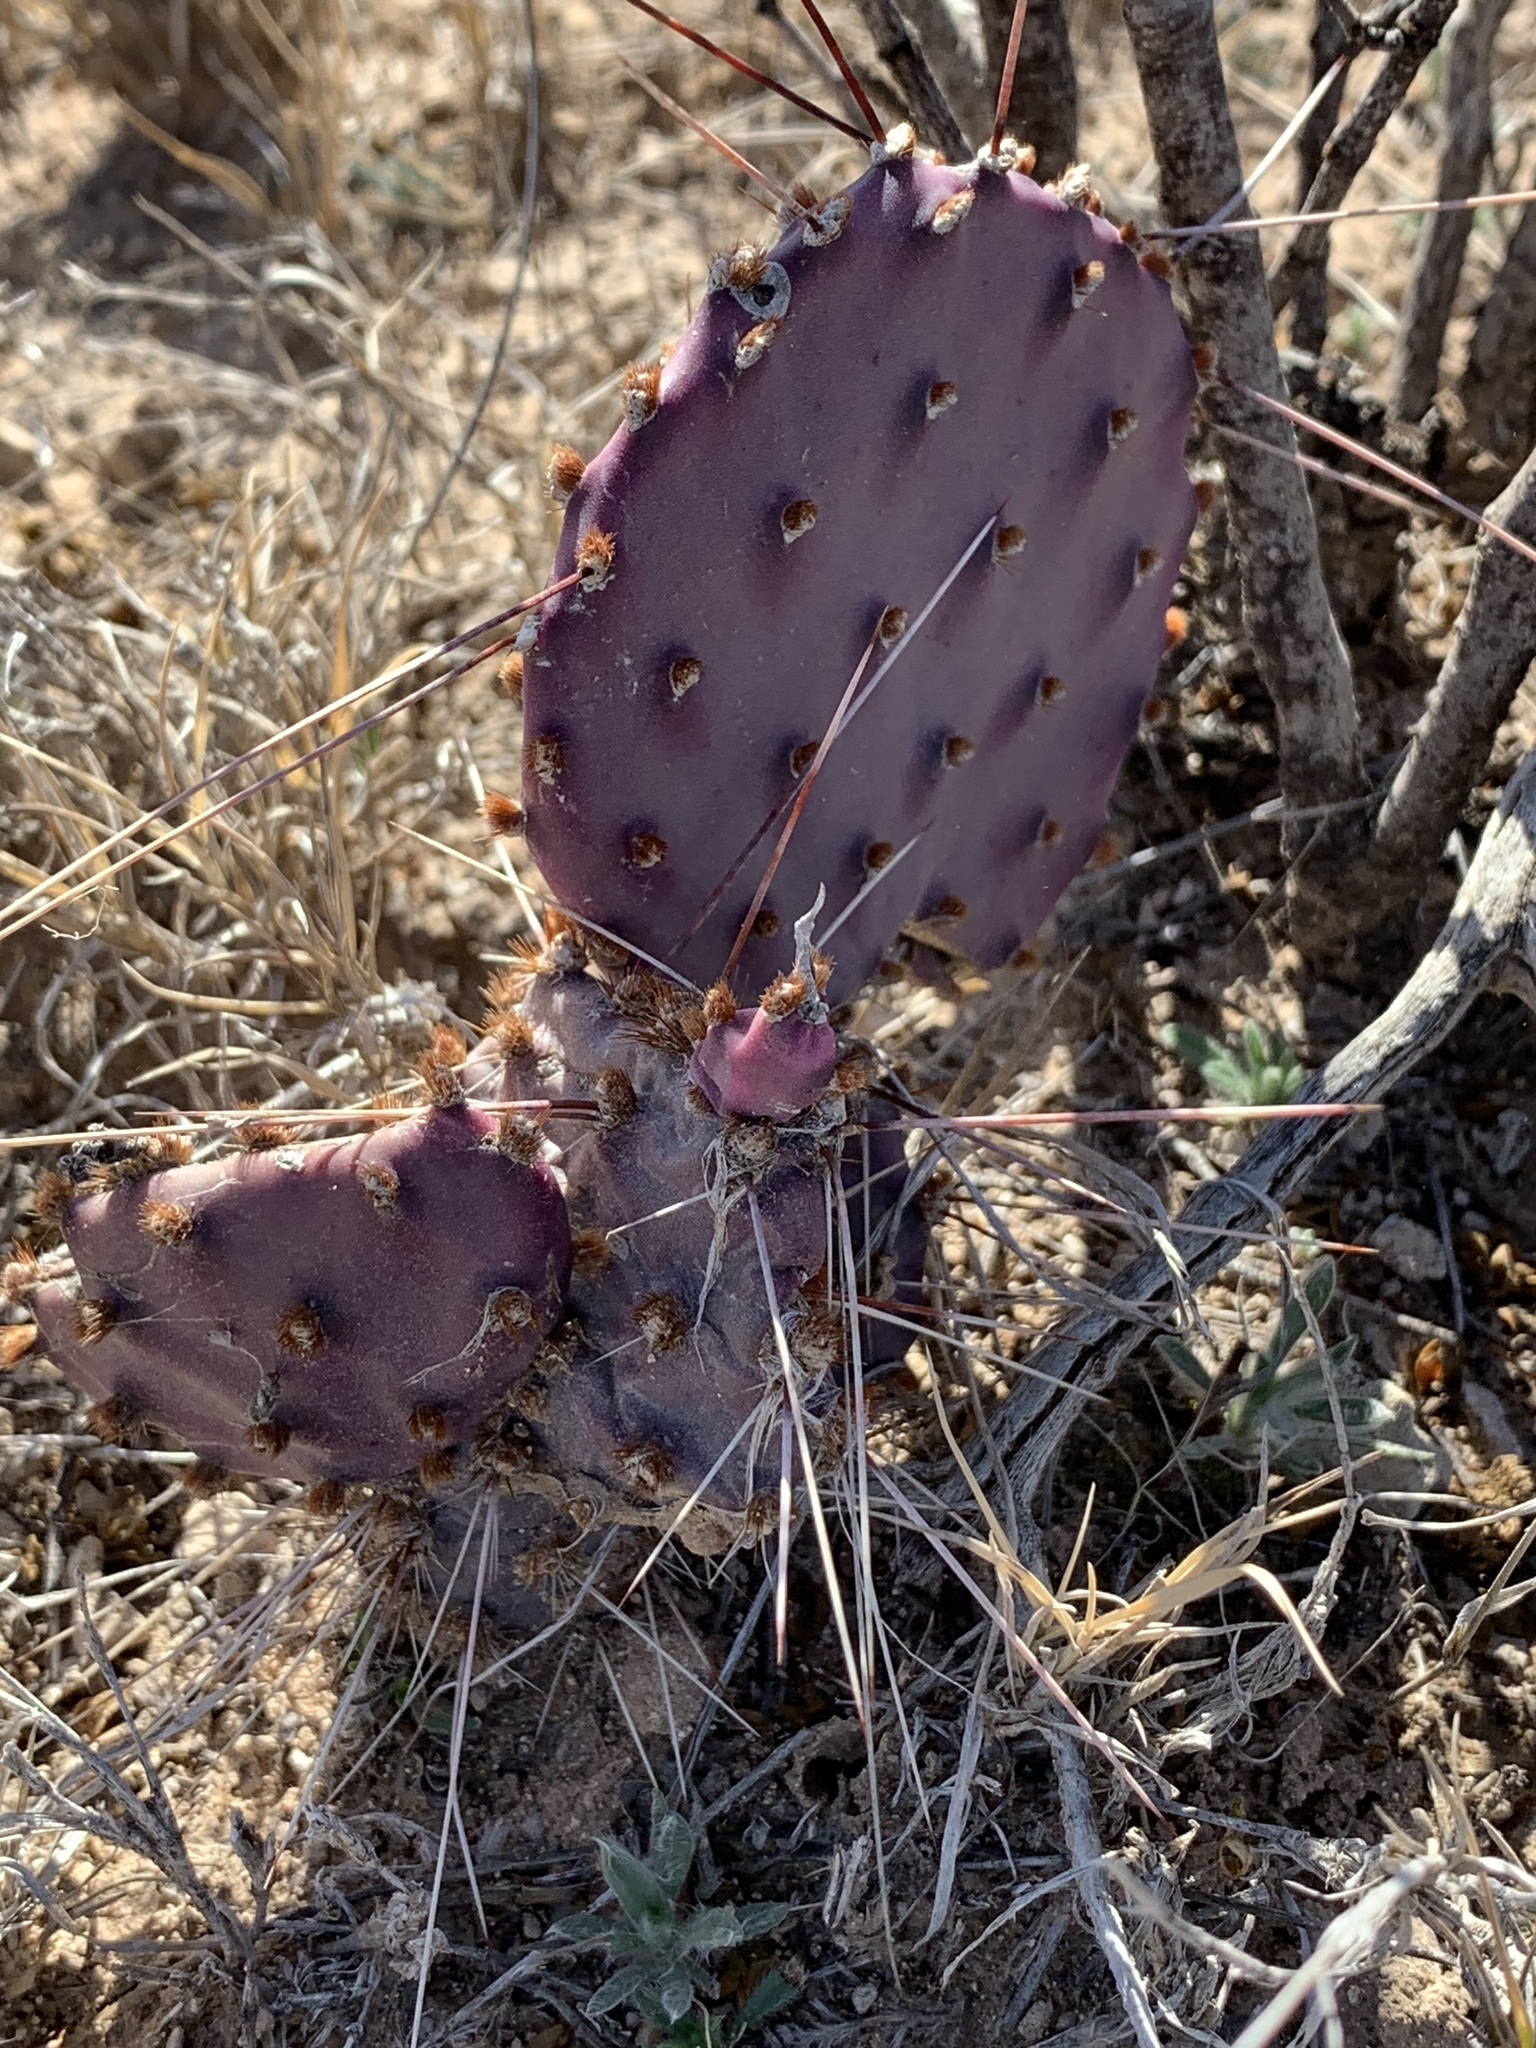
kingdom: Plantae
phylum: Tracheophyta
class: Magnoliopsida
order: Caryophyllales
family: Cactaceae
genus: Opuntia
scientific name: Opuntia macrocentra
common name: Purple prickly-pear
